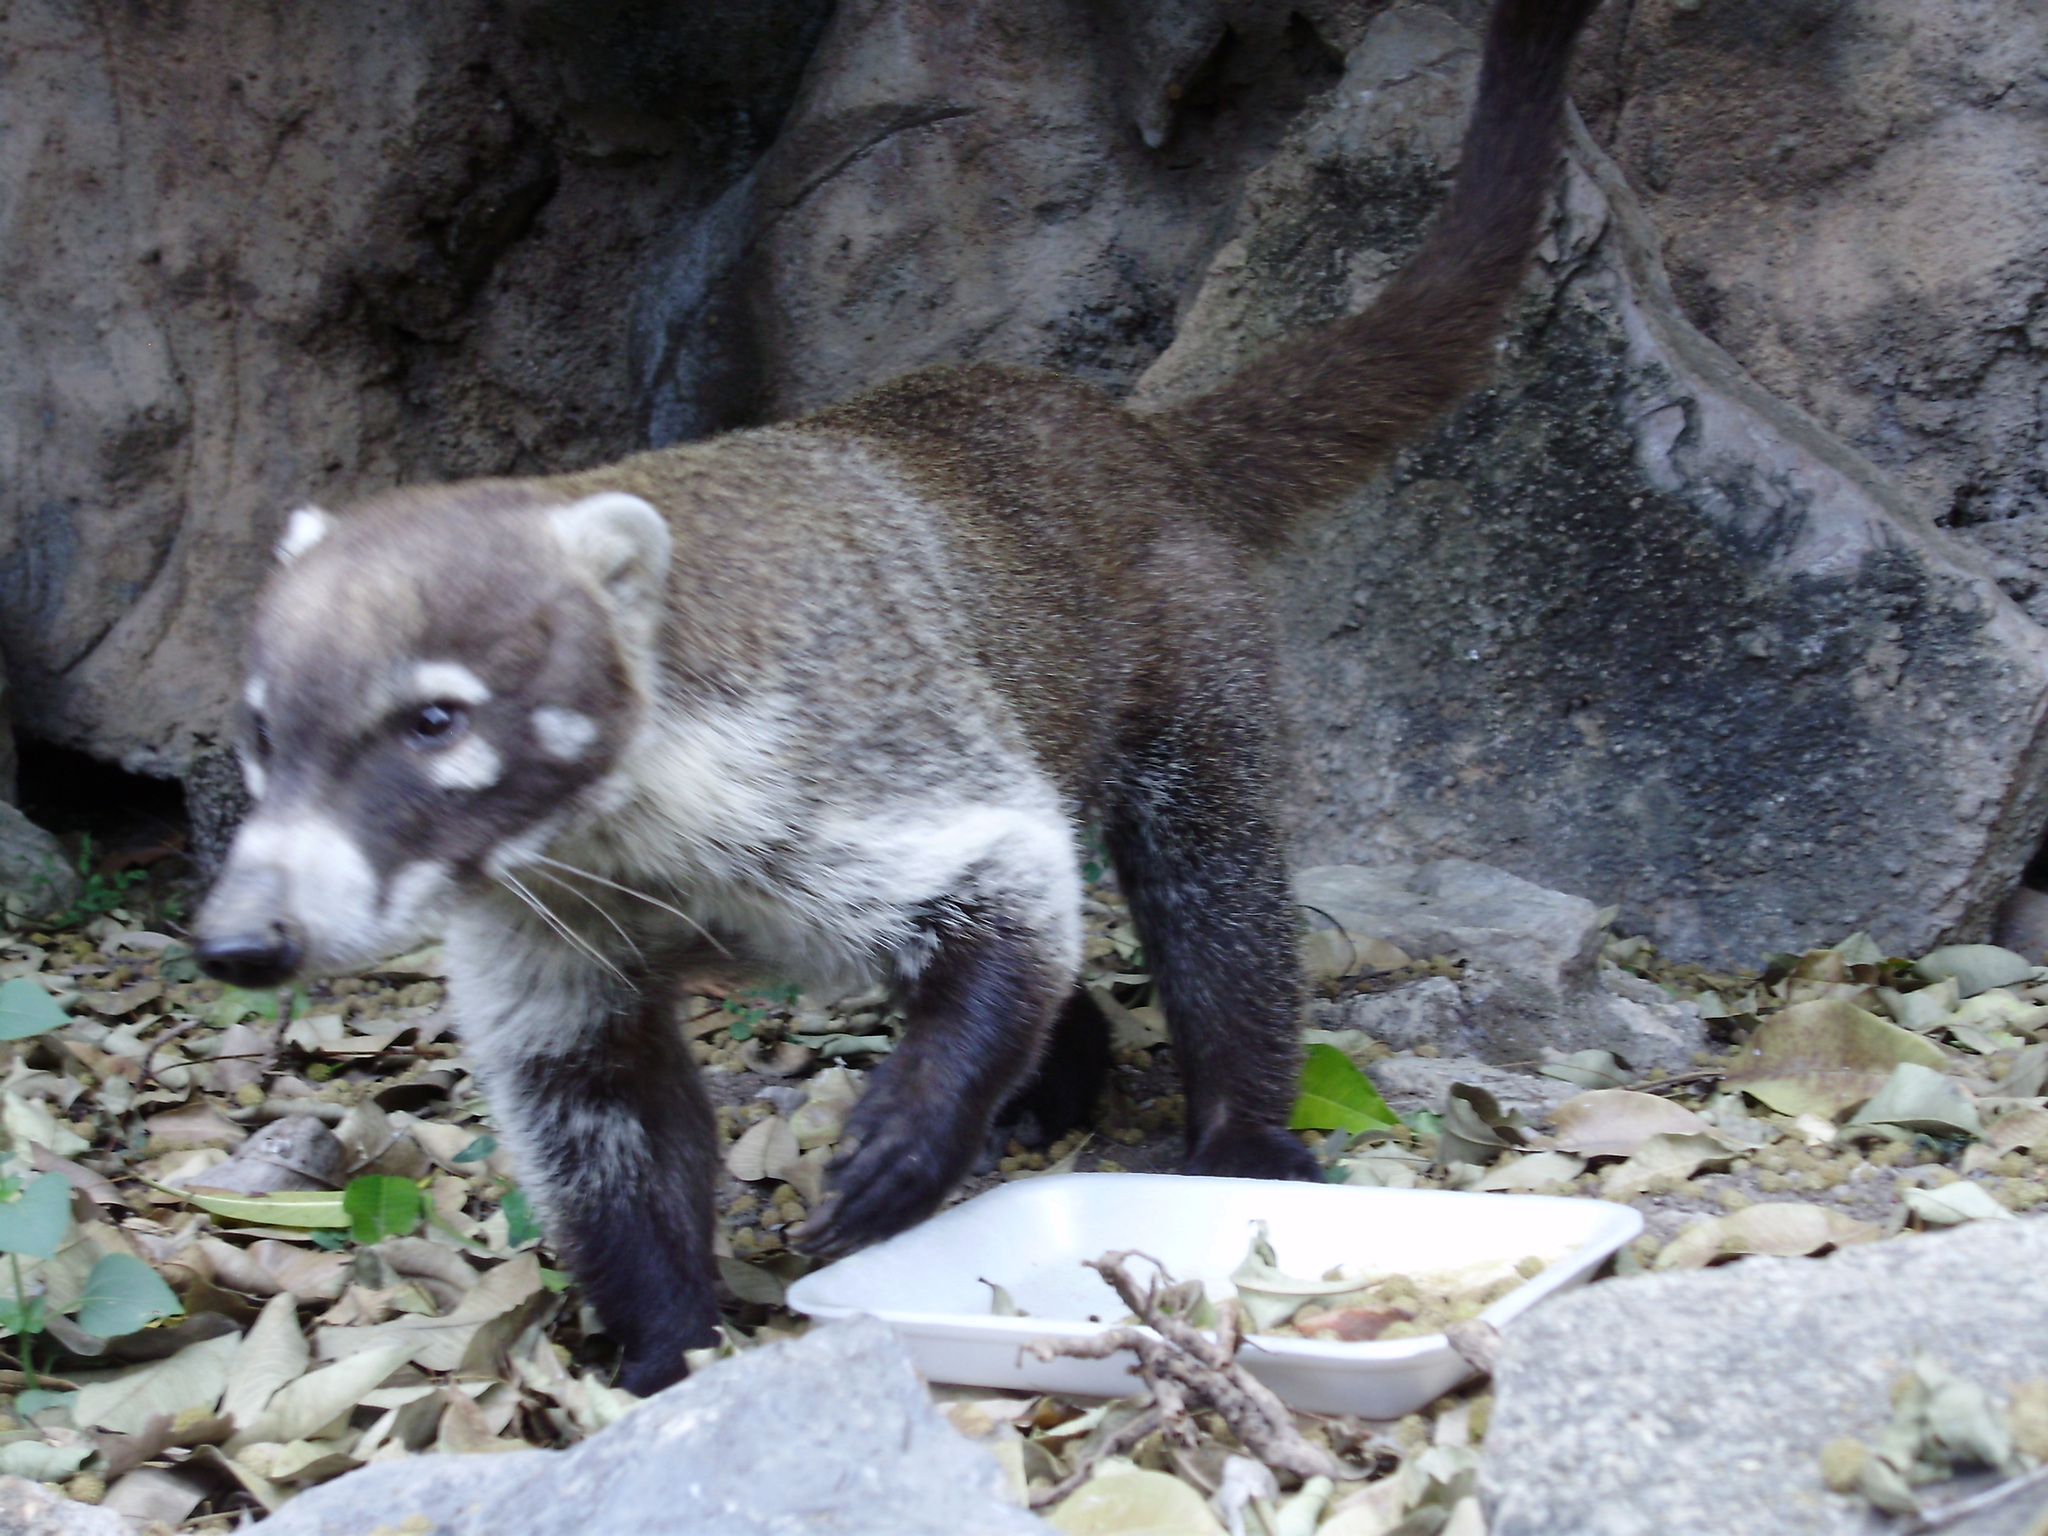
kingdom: Animalia
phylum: Chordata
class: Mammalia
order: Carnivora
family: Procyonidae
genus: Nasua
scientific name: Nasua narica
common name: White-nosed coati
